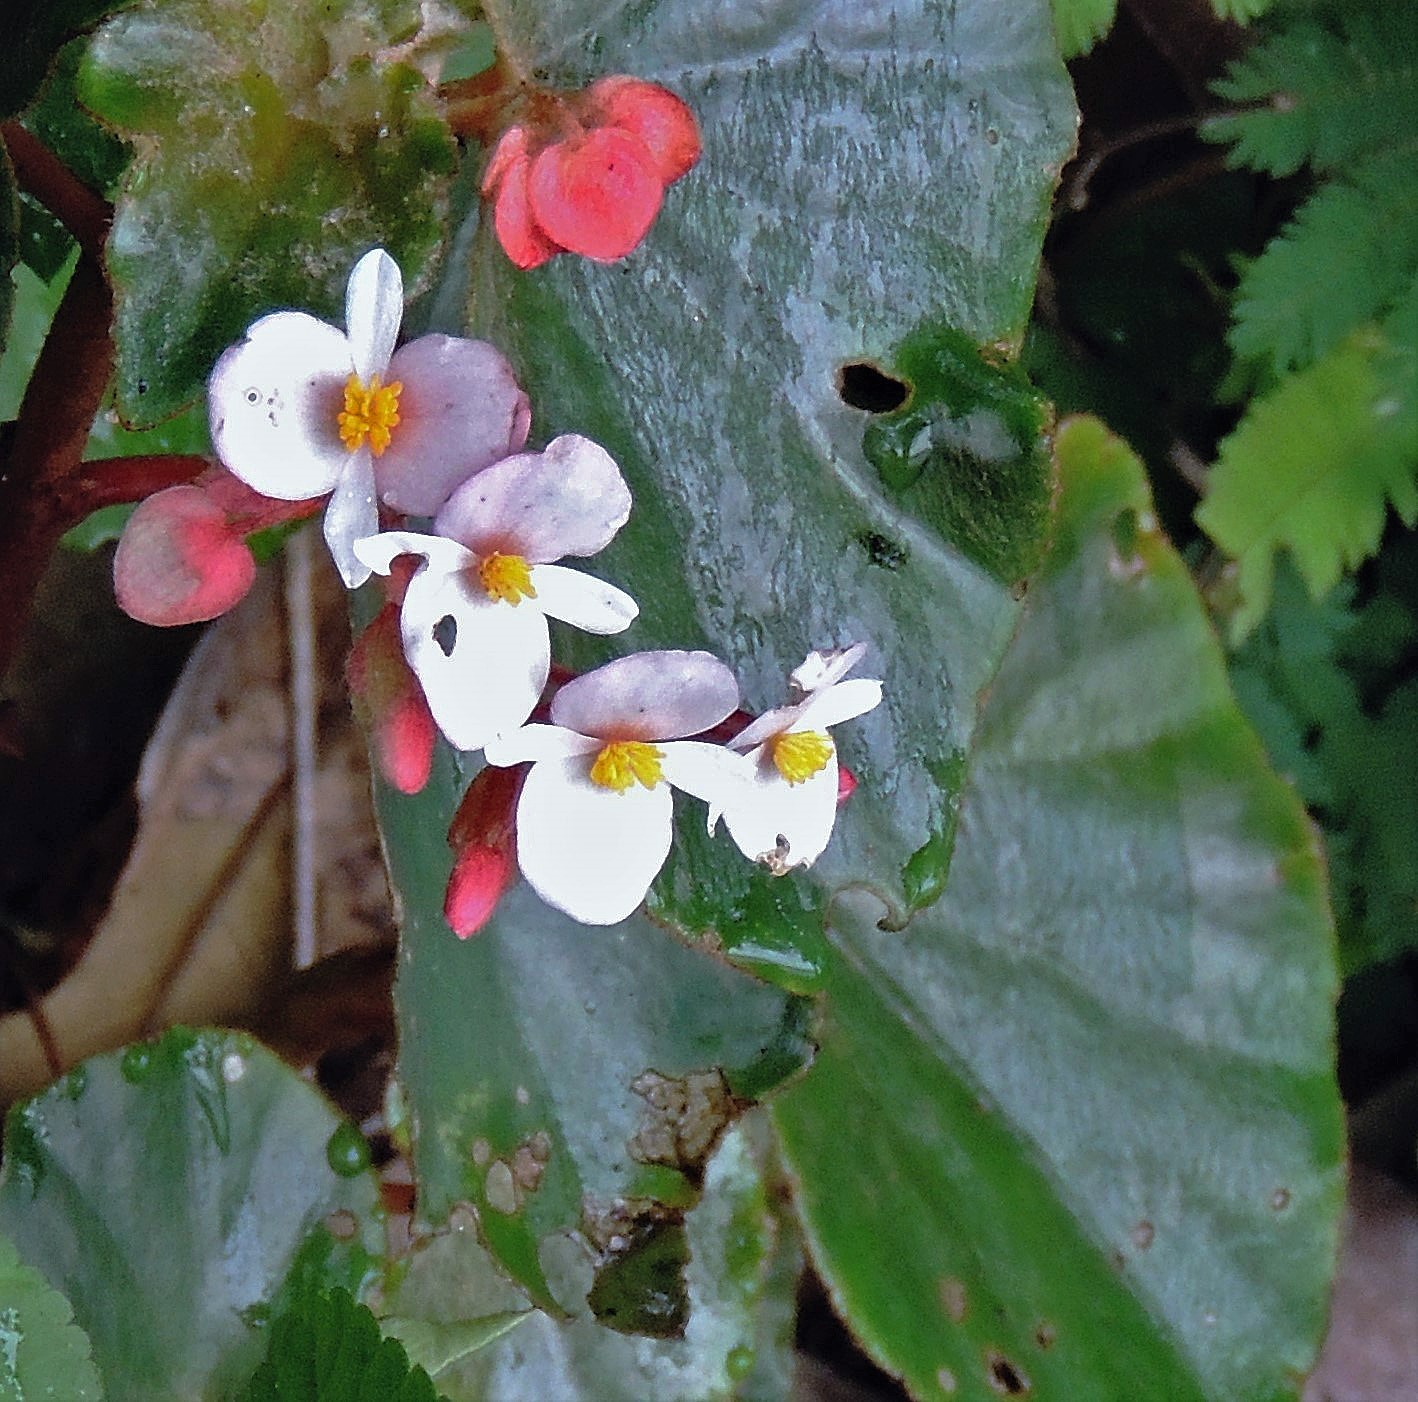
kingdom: Plantae
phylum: Tracheophyta
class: Magnoliopsida
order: Cucurbitales
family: Begoniaceae
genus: Begonia
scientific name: Begonia subvillosa
